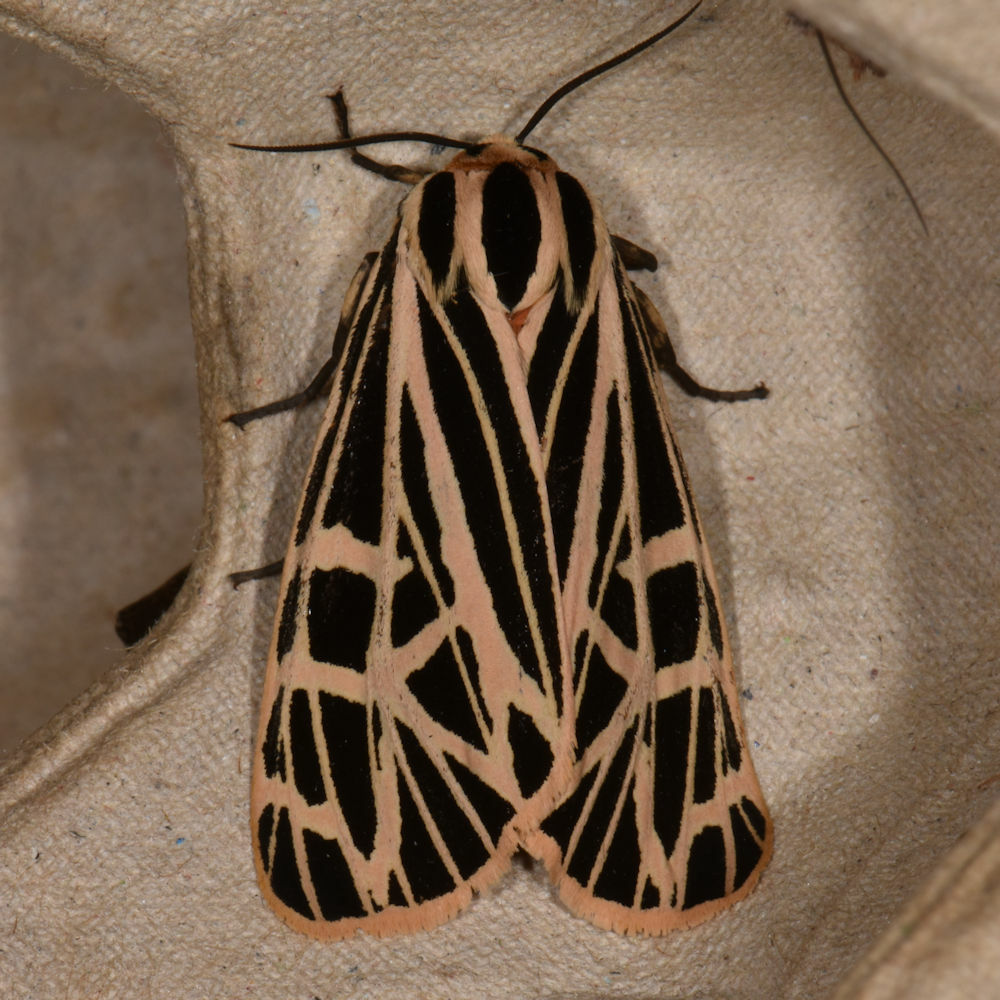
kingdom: Animalia
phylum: Arthropoda
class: Insecta
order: Lepidoptera
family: Erebidae
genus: Grammia
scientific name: Grammia virgo
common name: Virgin tiger moth
